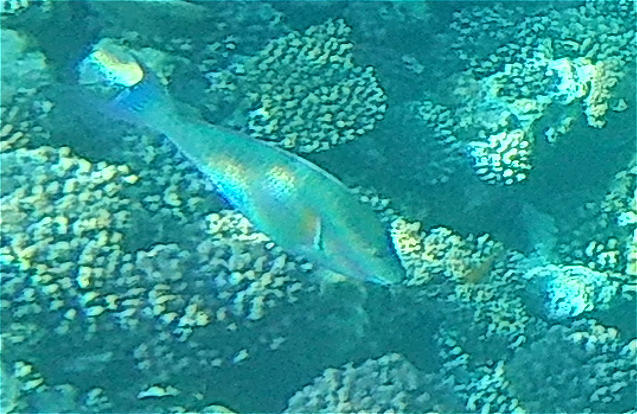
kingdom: Animalia
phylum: Chordata
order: Perciformes
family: Scaridae
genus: Hipposcarus
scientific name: Hipposcarus harid
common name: Candelamoa parrotfish
